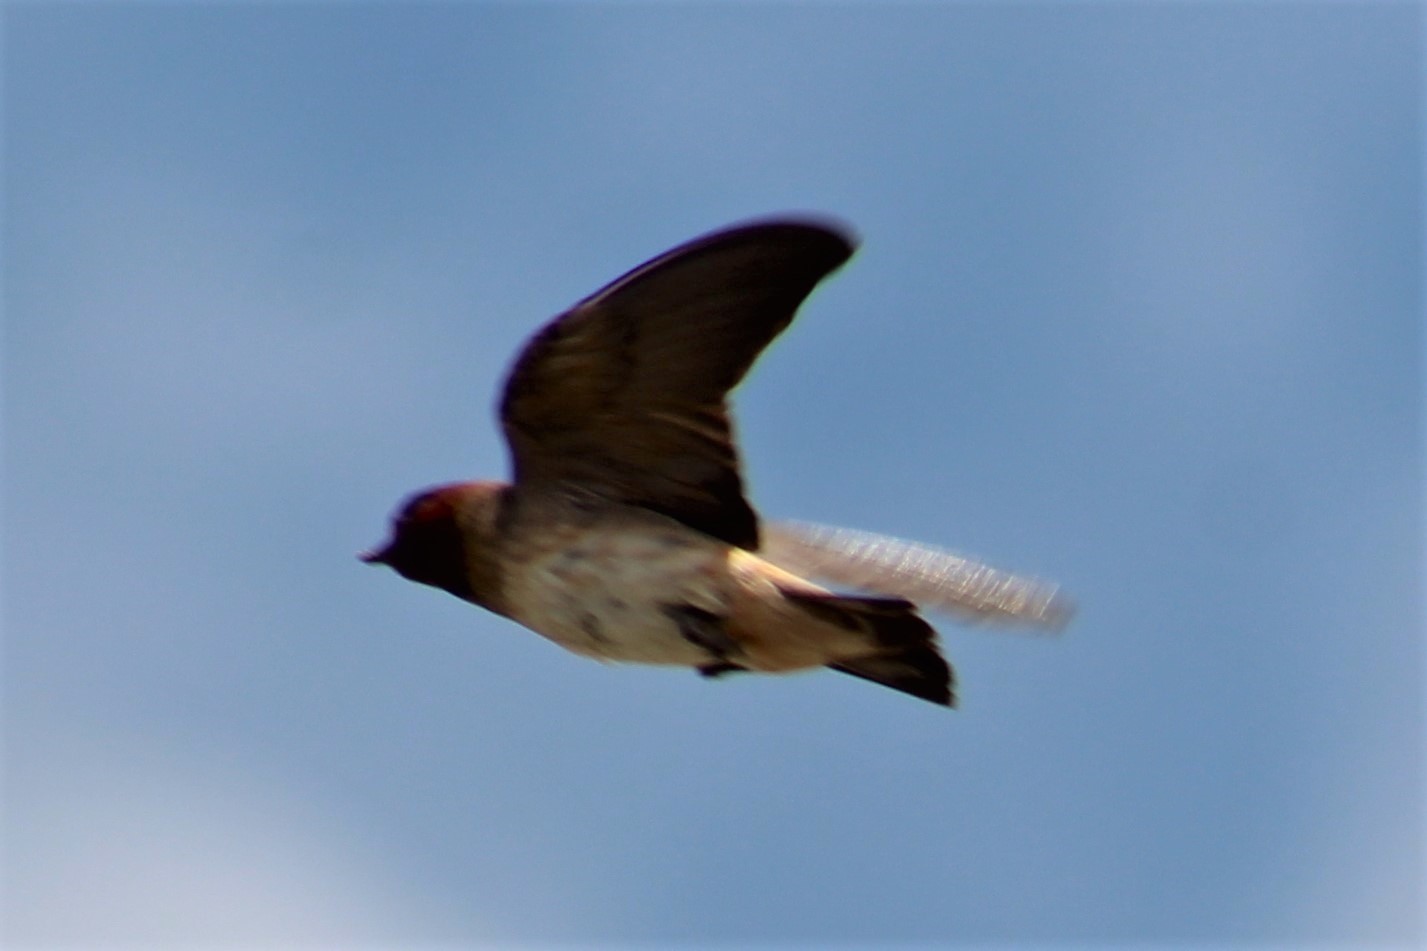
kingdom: Animalia
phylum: Chordata
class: Aves
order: Passeriformes
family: Hirundinidae
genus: Petrochelidon
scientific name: Petrochelidon pyrrhonota
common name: American cliff swallow
